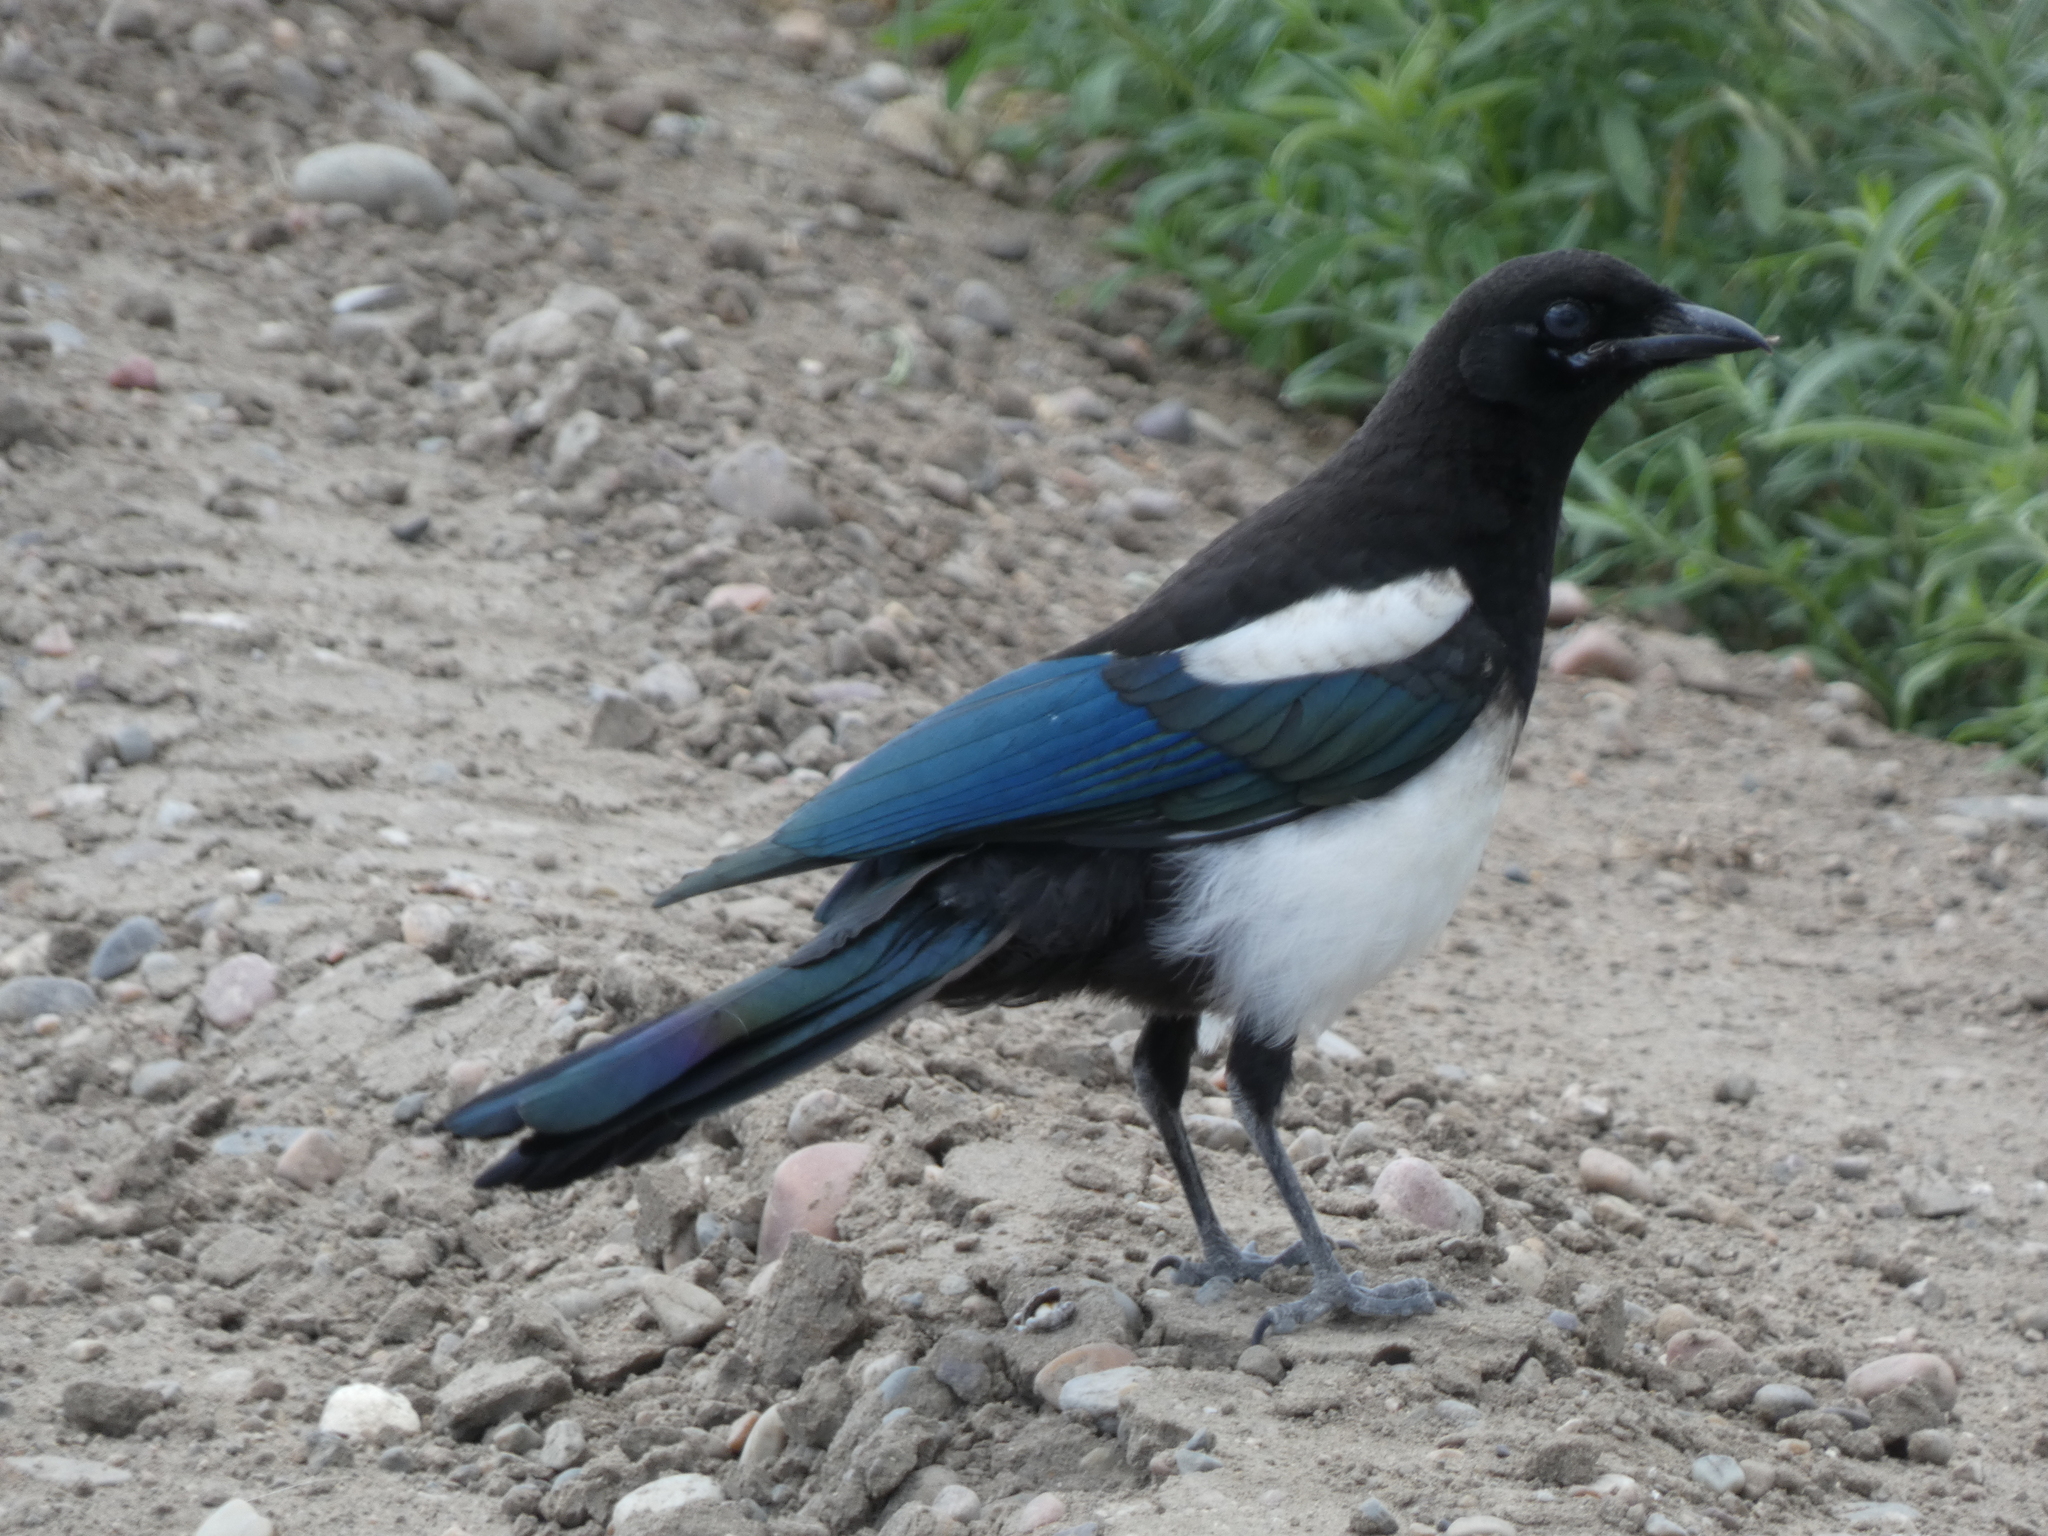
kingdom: Animalia
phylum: Chordata
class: Aves
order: Passeriformes
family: Corvidae
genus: Pica
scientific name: Pica hudsonia
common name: Black-billed magpie
